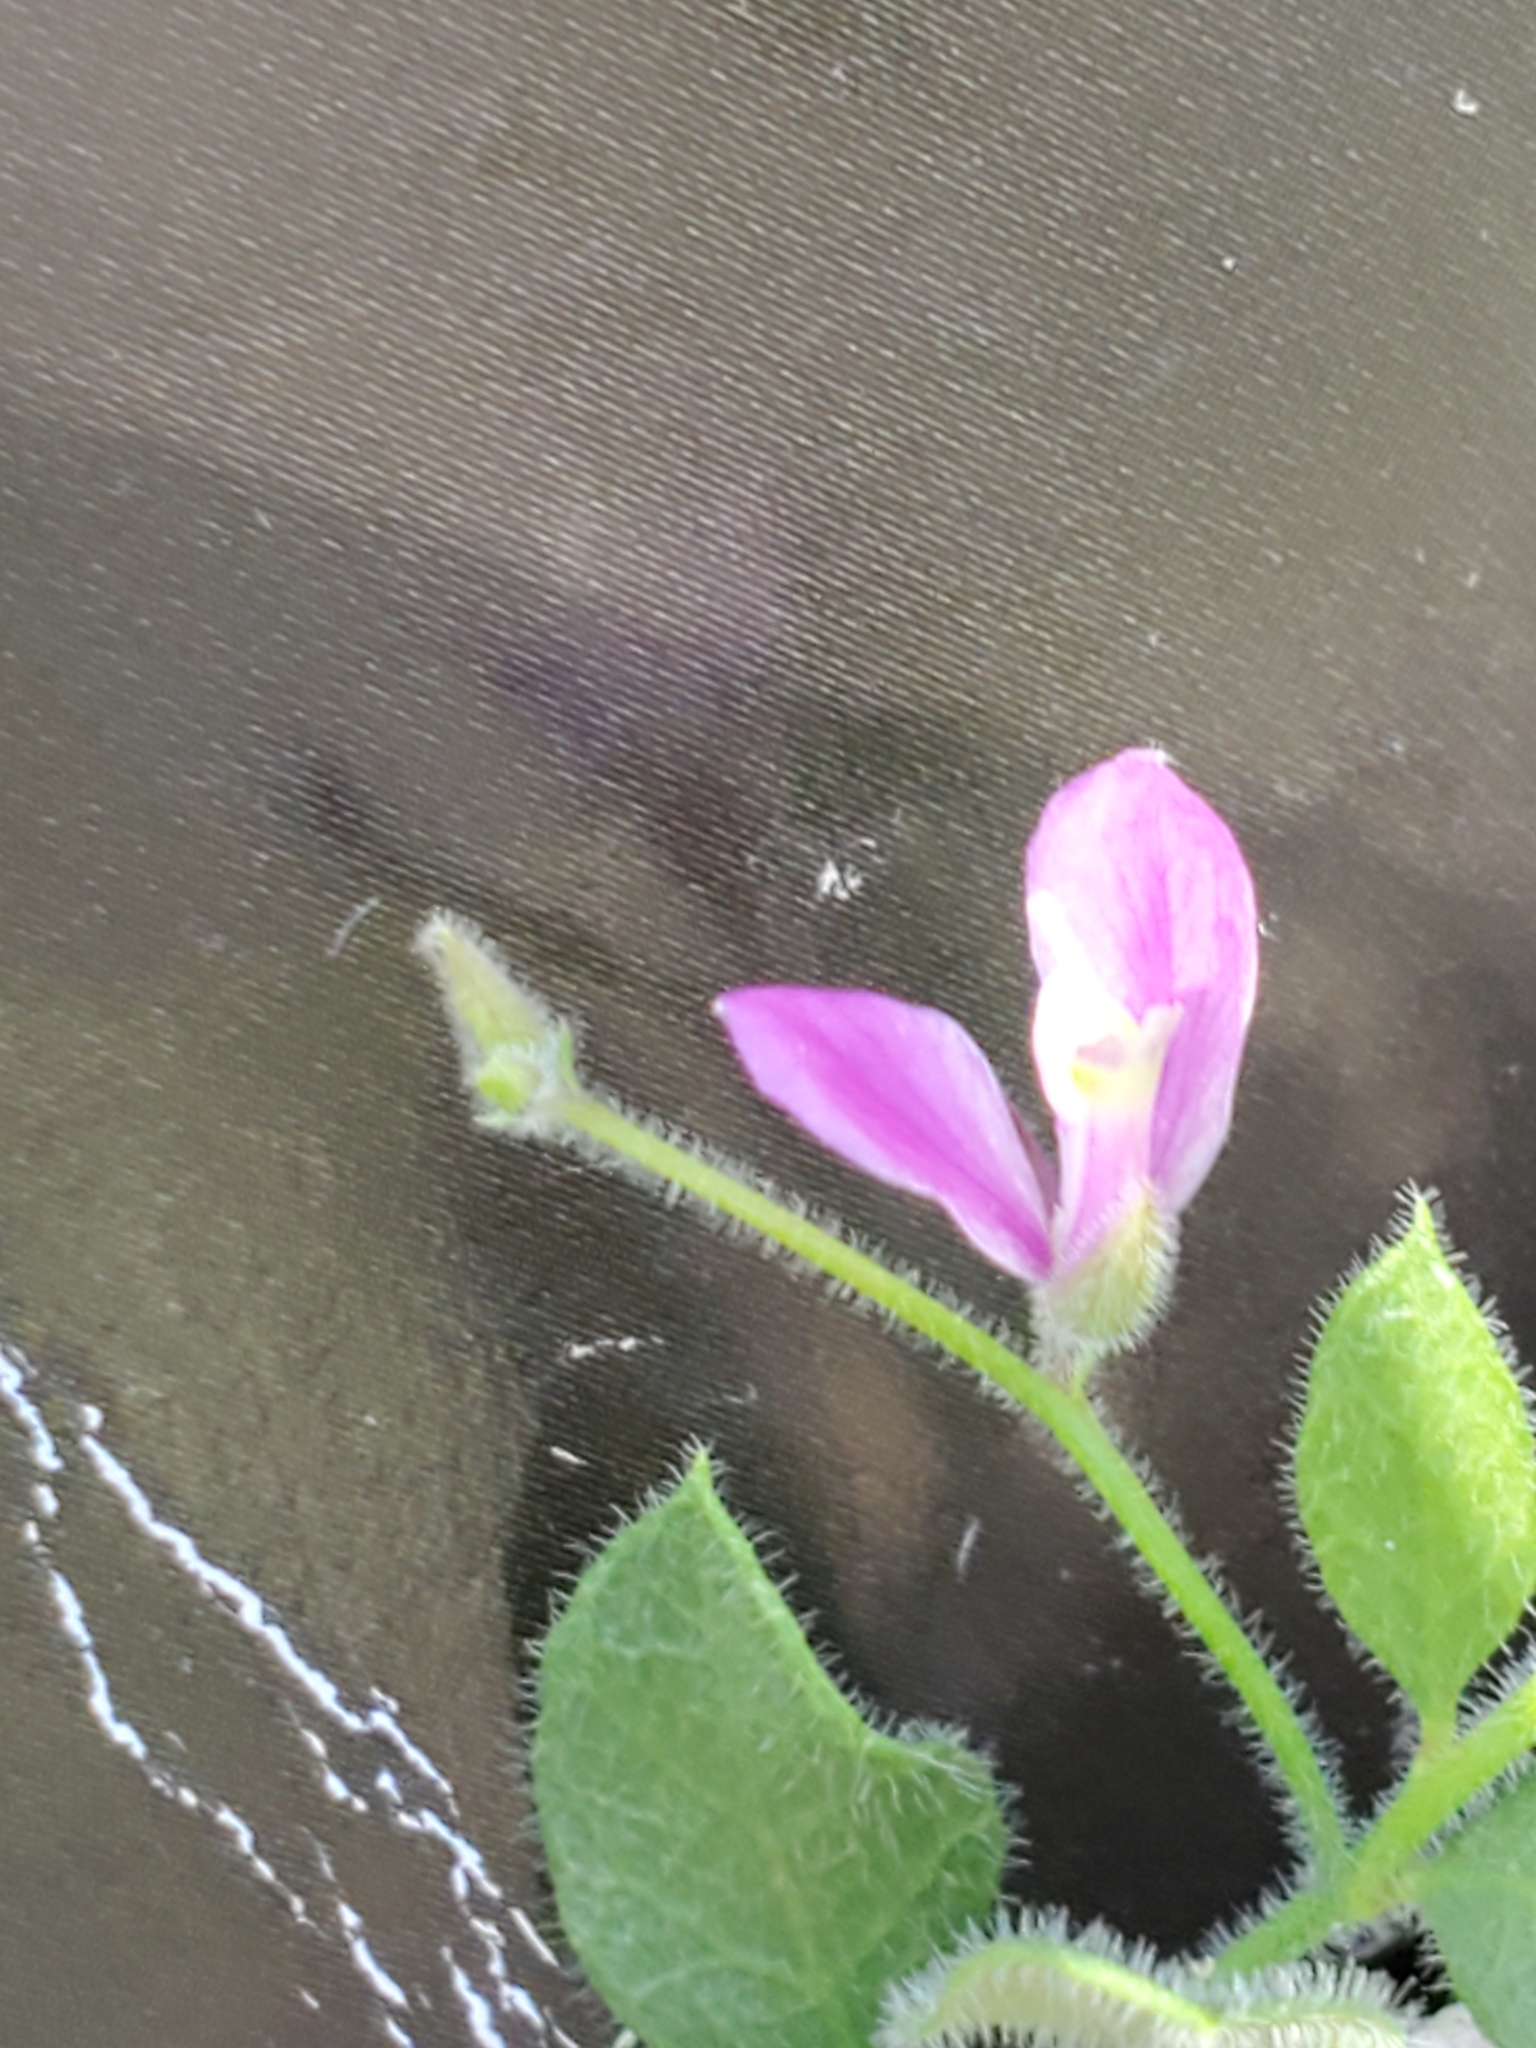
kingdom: Plantae
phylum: Tracheophyta
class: Magnoliopsida
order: Fabales
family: Polygalaceae
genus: Rhinotropis
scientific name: Rhinotropis lindheimeri
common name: Shrubby milkwort
